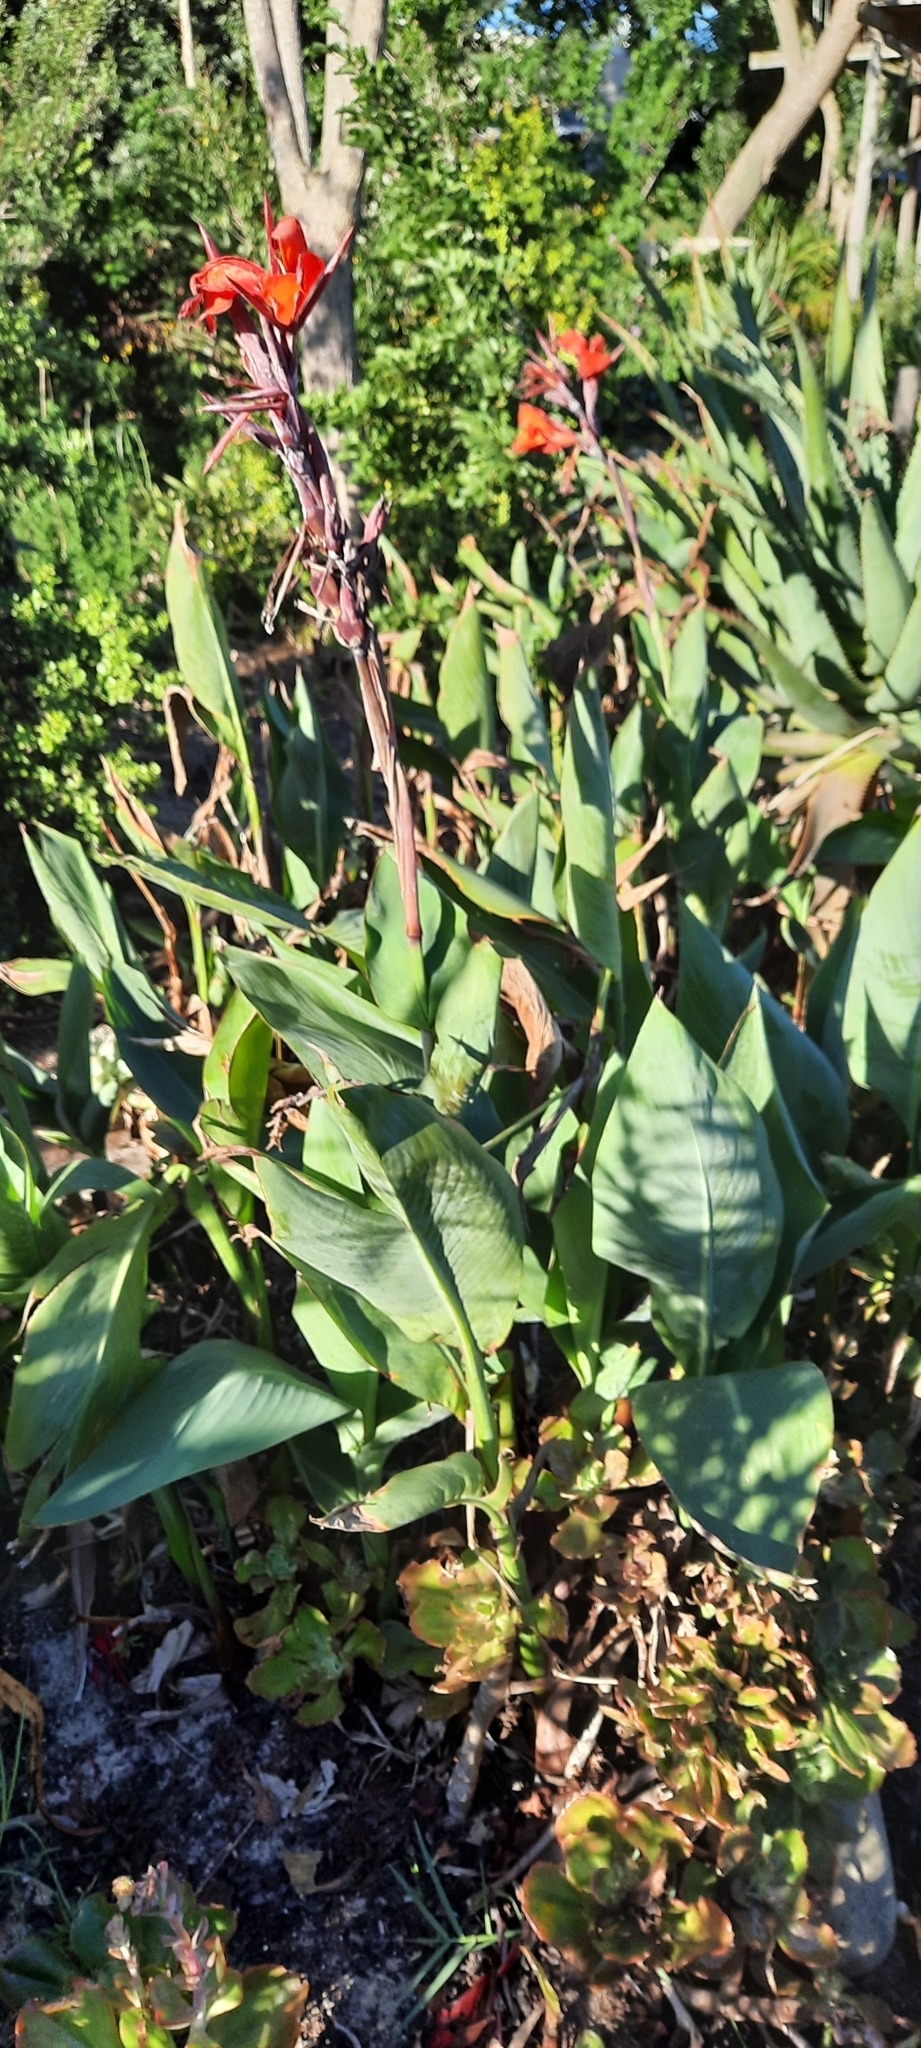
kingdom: Plantae
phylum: Tracheophyta
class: Liliopsida
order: Zingiberales
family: Cannaceae
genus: Canna
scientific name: Canna hybrida
